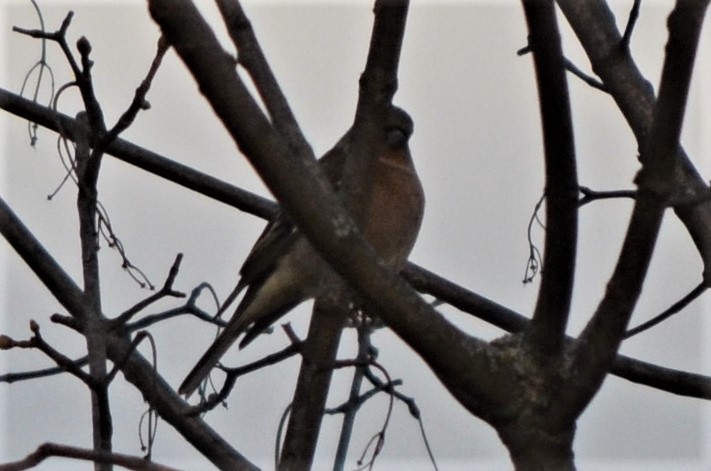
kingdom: Animalia
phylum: Chordata
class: Aves
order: Passeriformes
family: Fringillidae
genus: Fringilla
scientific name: Fringilla coelebs
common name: Common chaffinch
